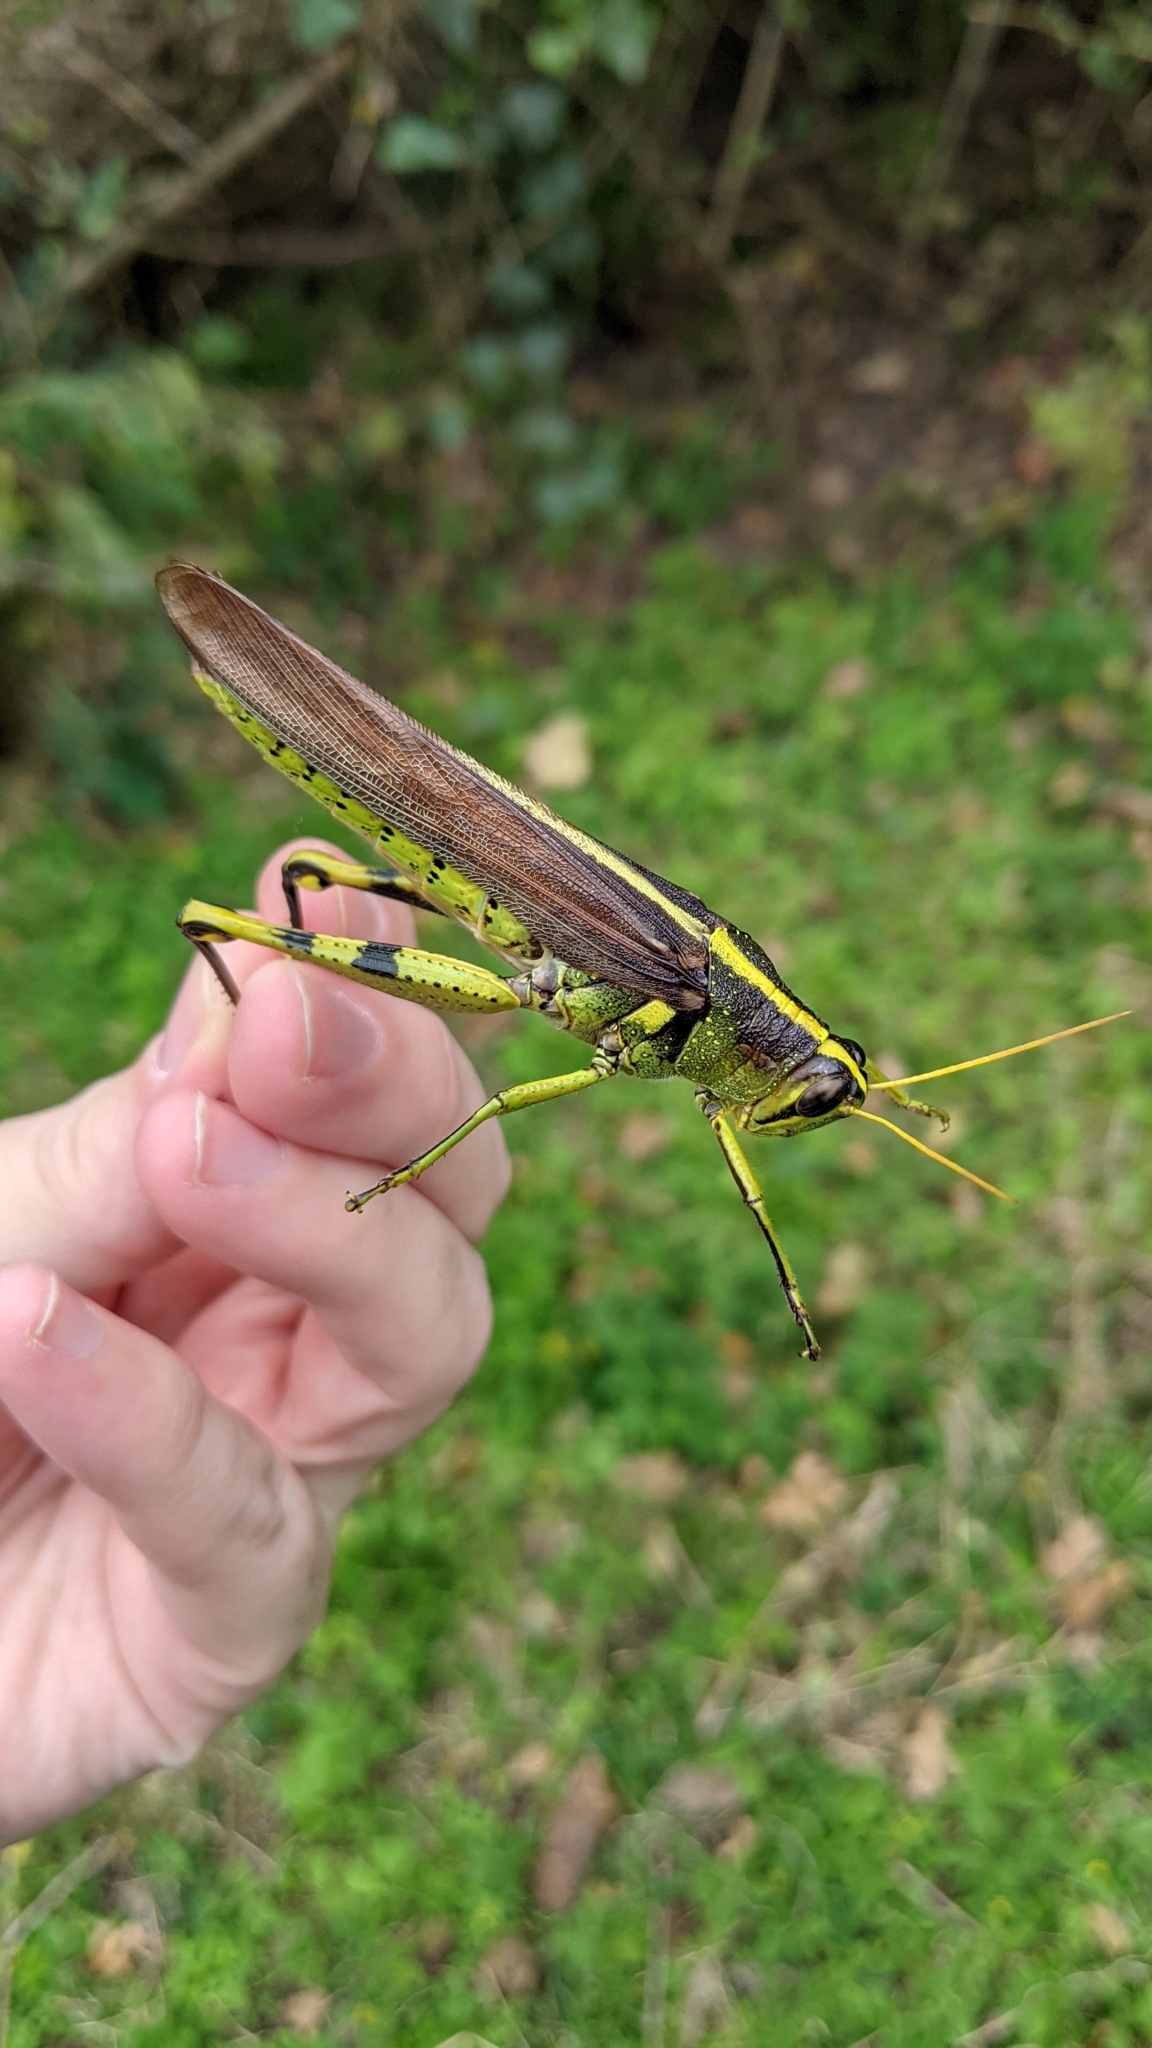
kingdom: Animalia
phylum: Arthropoda
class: Insecta
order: Orthoptera
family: Acrididae
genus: Schistocerca
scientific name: Schistocerca obscura
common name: Obscure bird grasshopper
